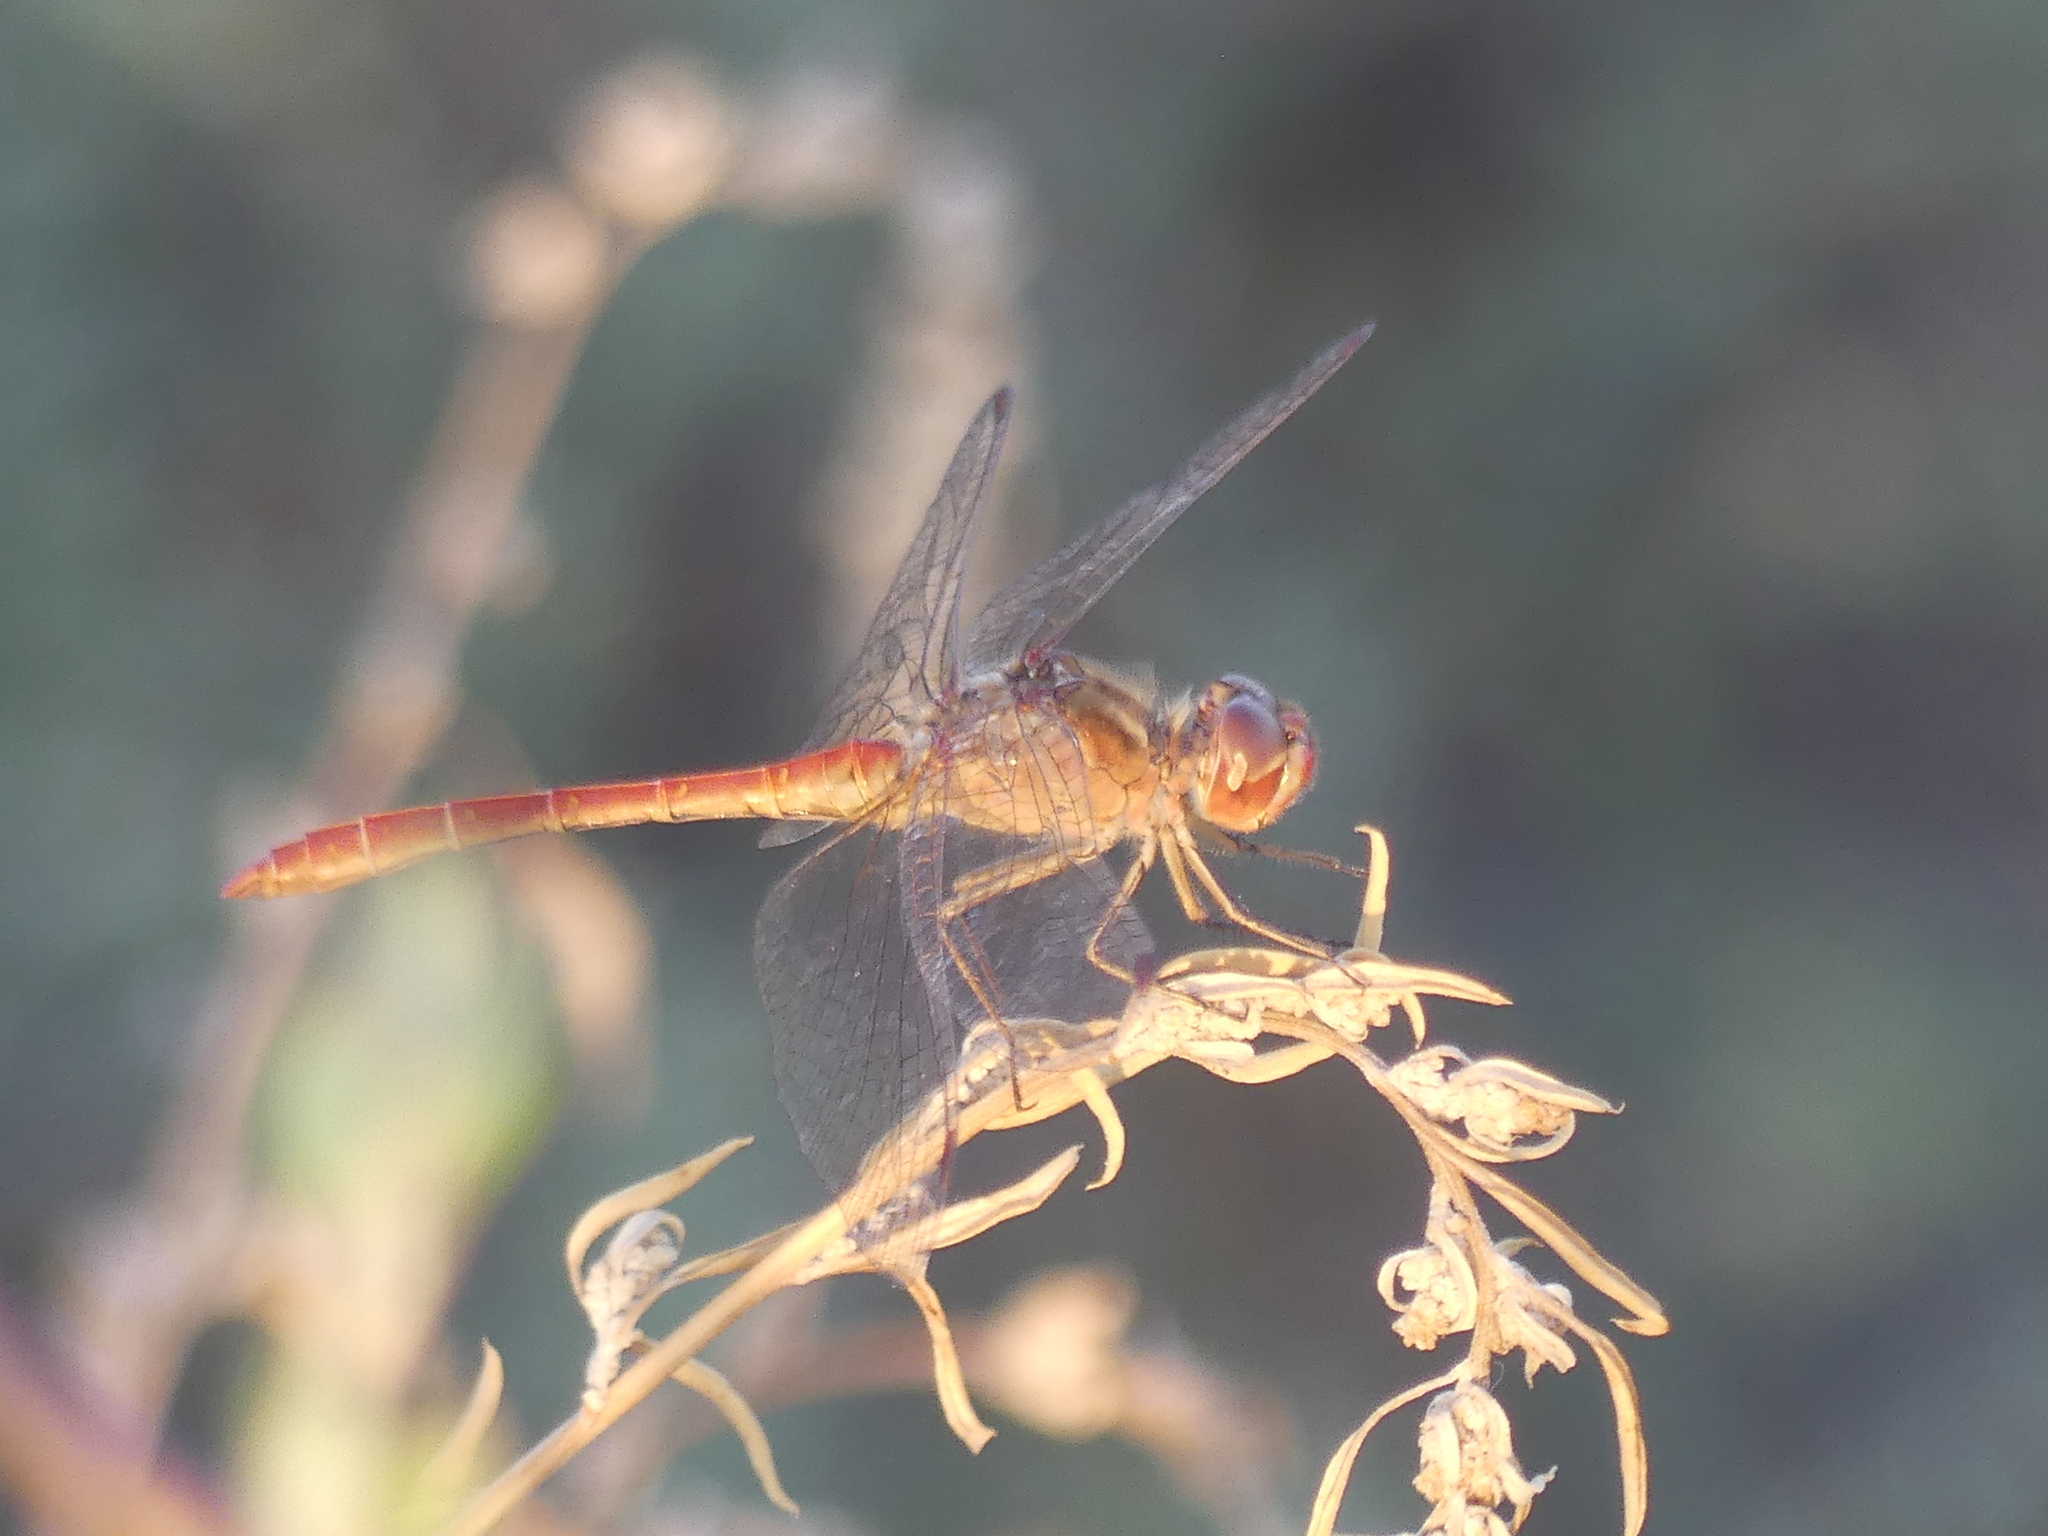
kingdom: Animalia
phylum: Arthropoda
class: Insecta
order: Odonata
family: Libellulidae
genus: Sympetrum
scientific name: Sympetrum meridionale
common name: Southern darter
